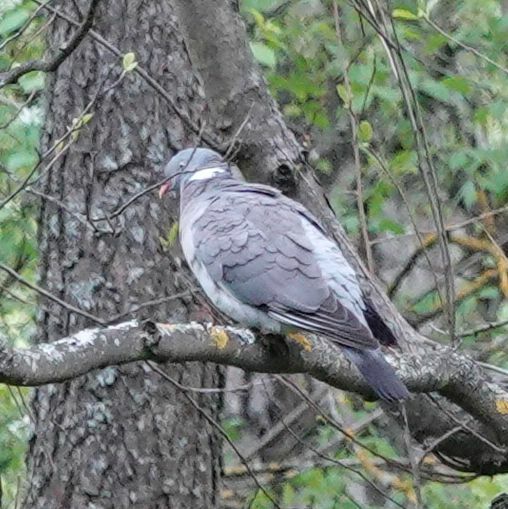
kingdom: Animalia
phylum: Chordata
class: Aves
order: Columbiformes
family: Columbidae
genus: Columba
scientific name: Columba palumbus
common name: Common wood pigeon
